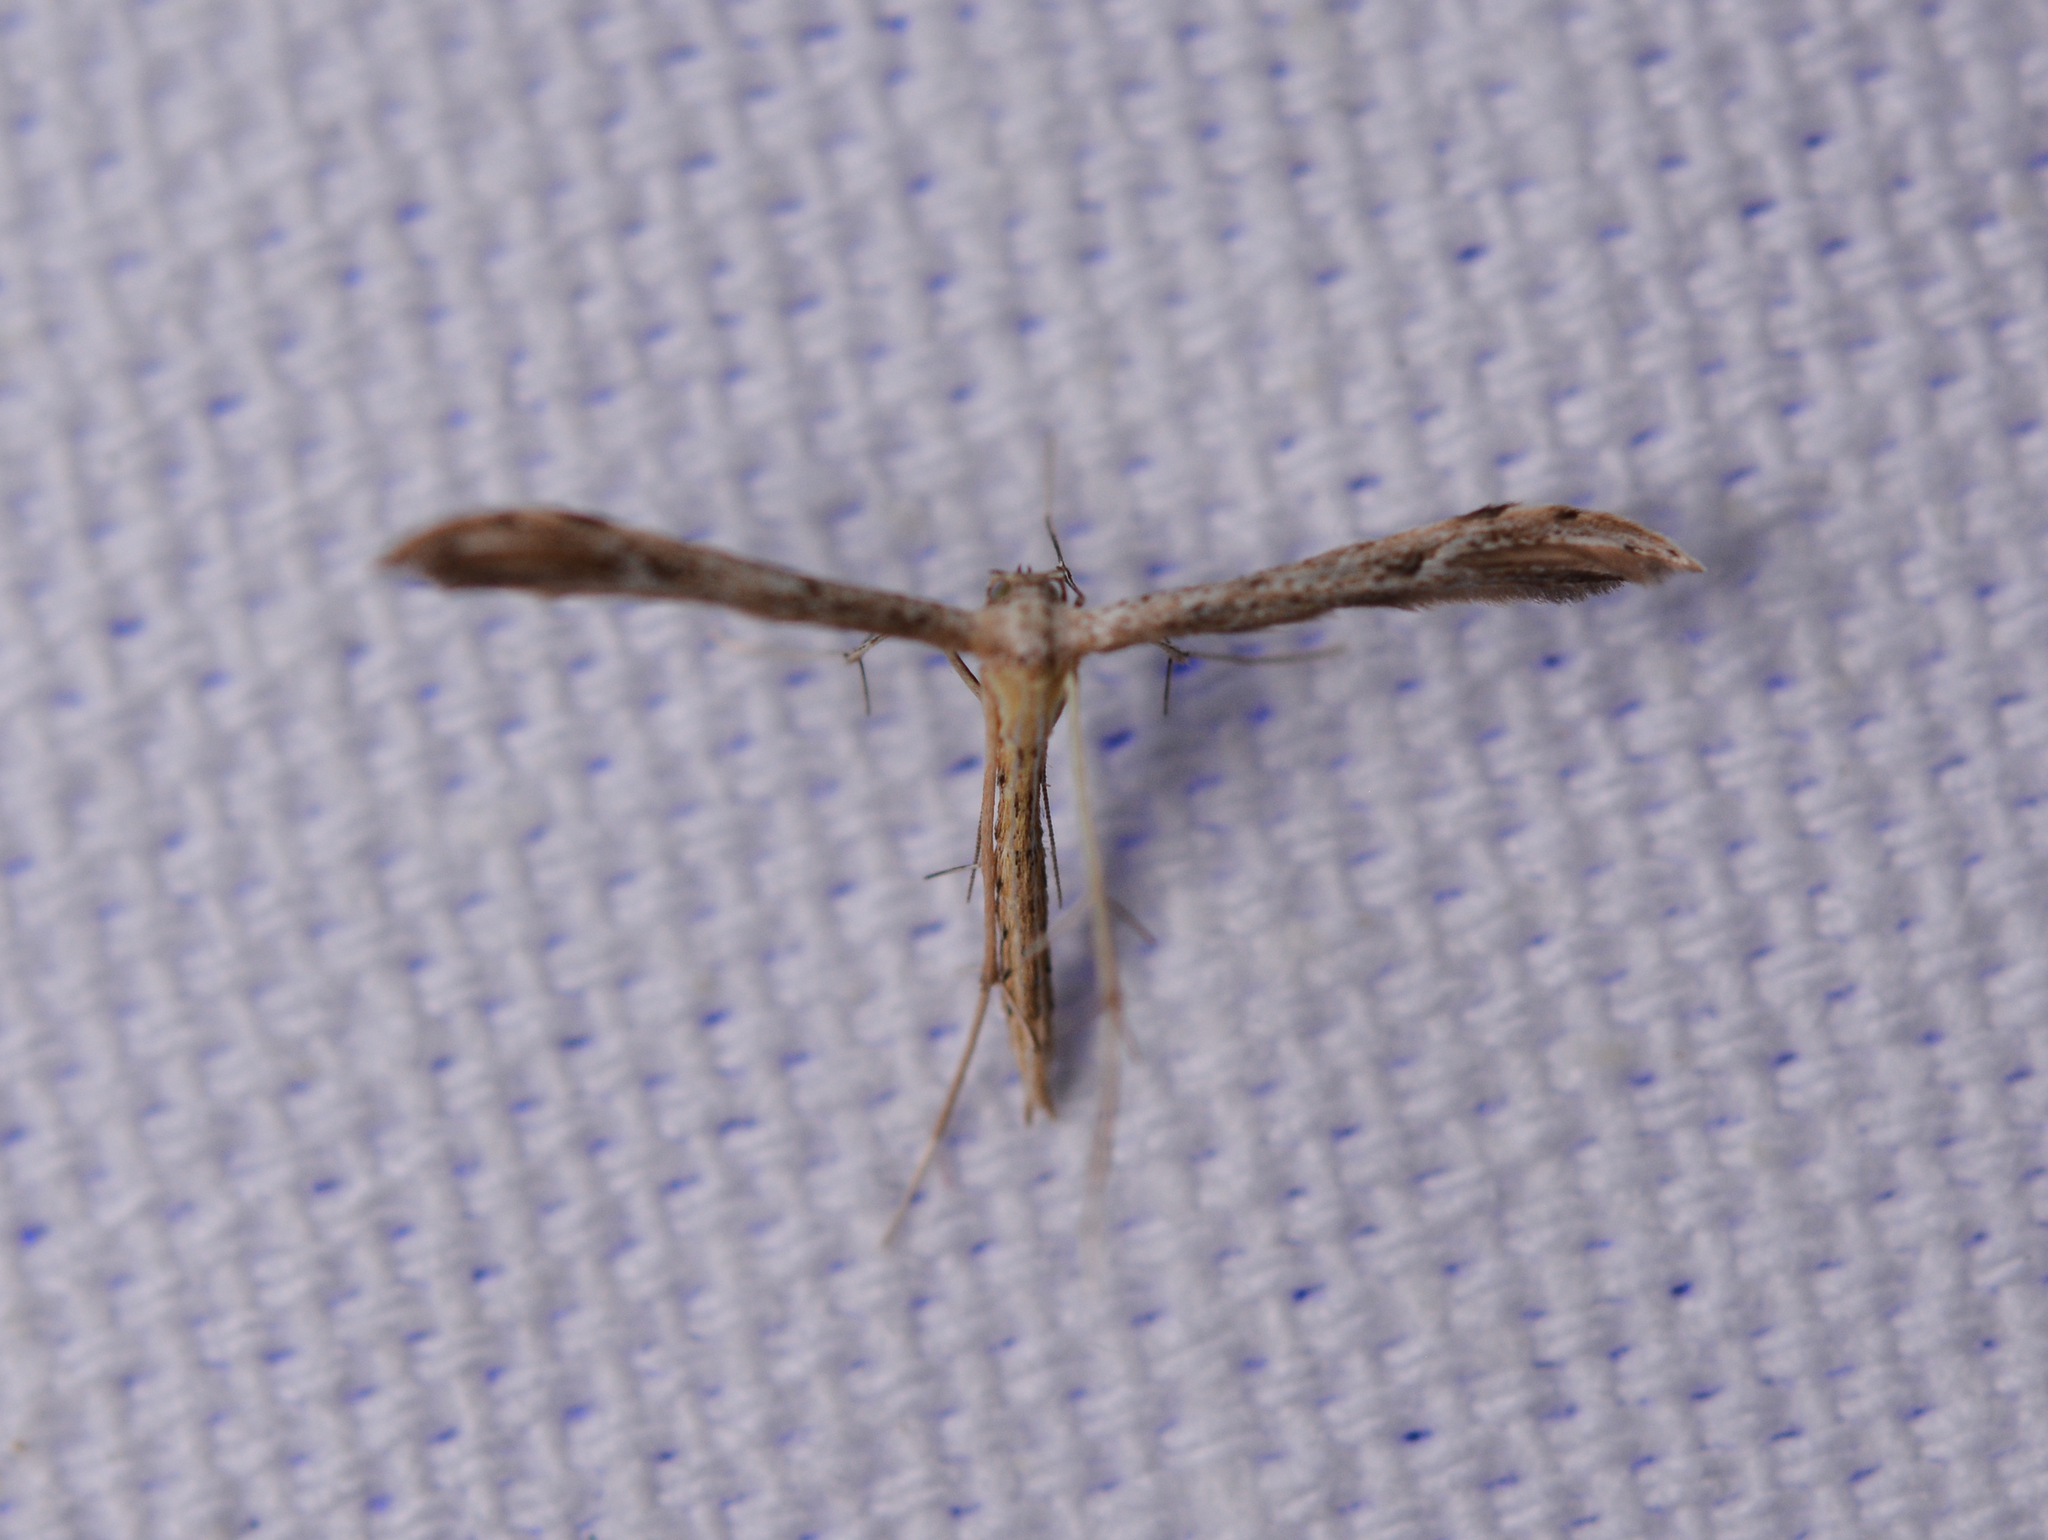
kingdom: Animalia
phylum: Arthropoda
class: Insecta
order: Lepidoptera
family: Pterophoridae
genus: Pselnophorus
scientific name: Pselnophorus belfragei
